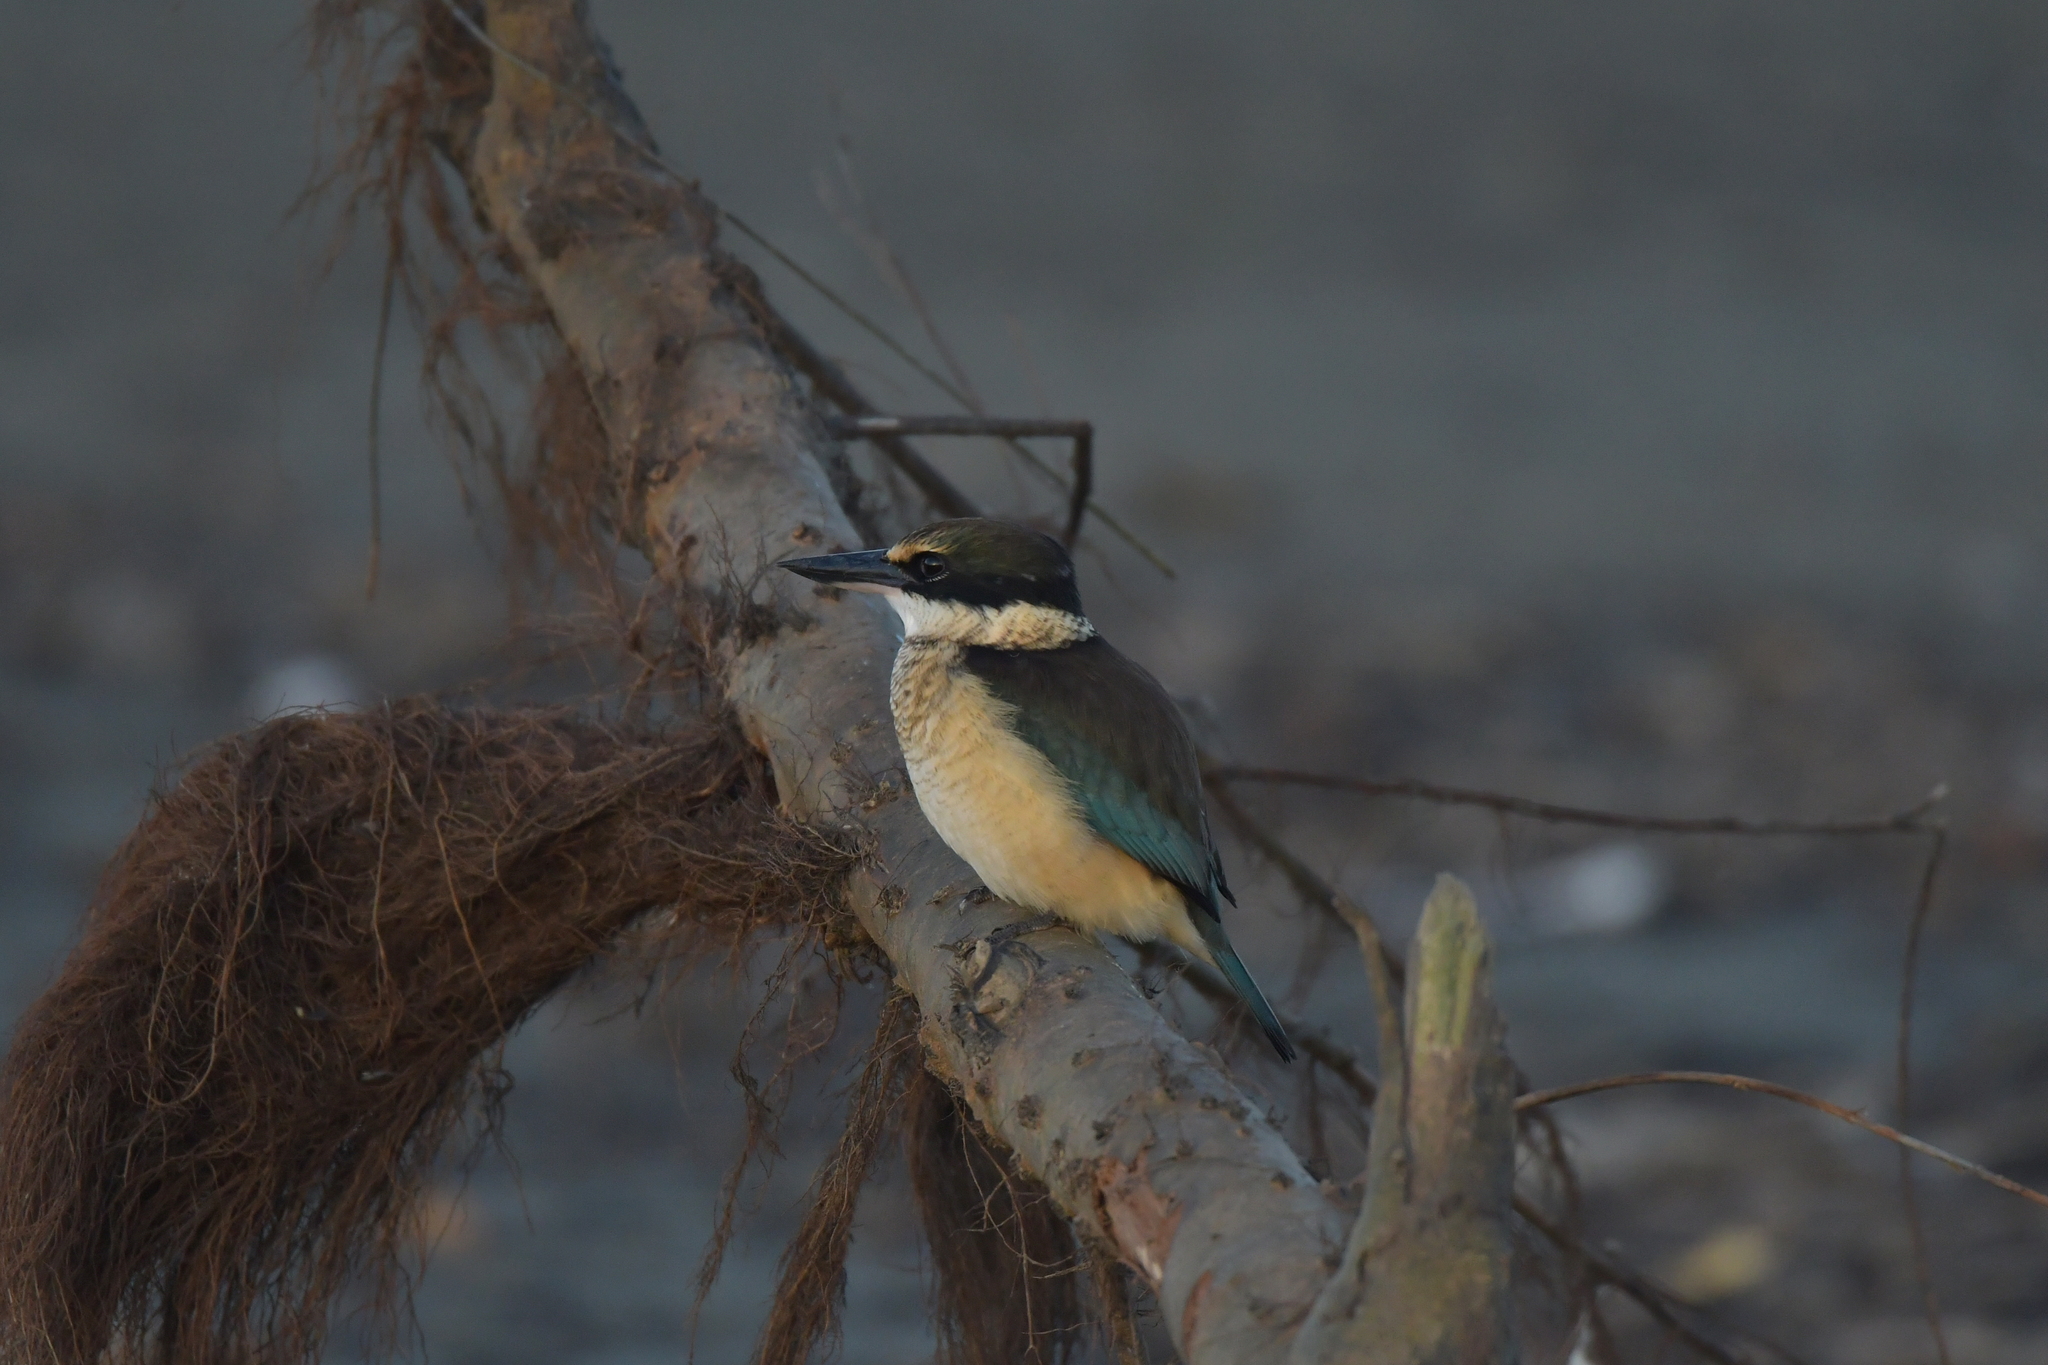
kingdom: Animalia
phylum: Chordata
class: Aves
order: Coraciiformes
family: Alcedinidae
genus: Todiramphus
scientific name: Todiramphus sanctus
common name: Sacred kingfisher
